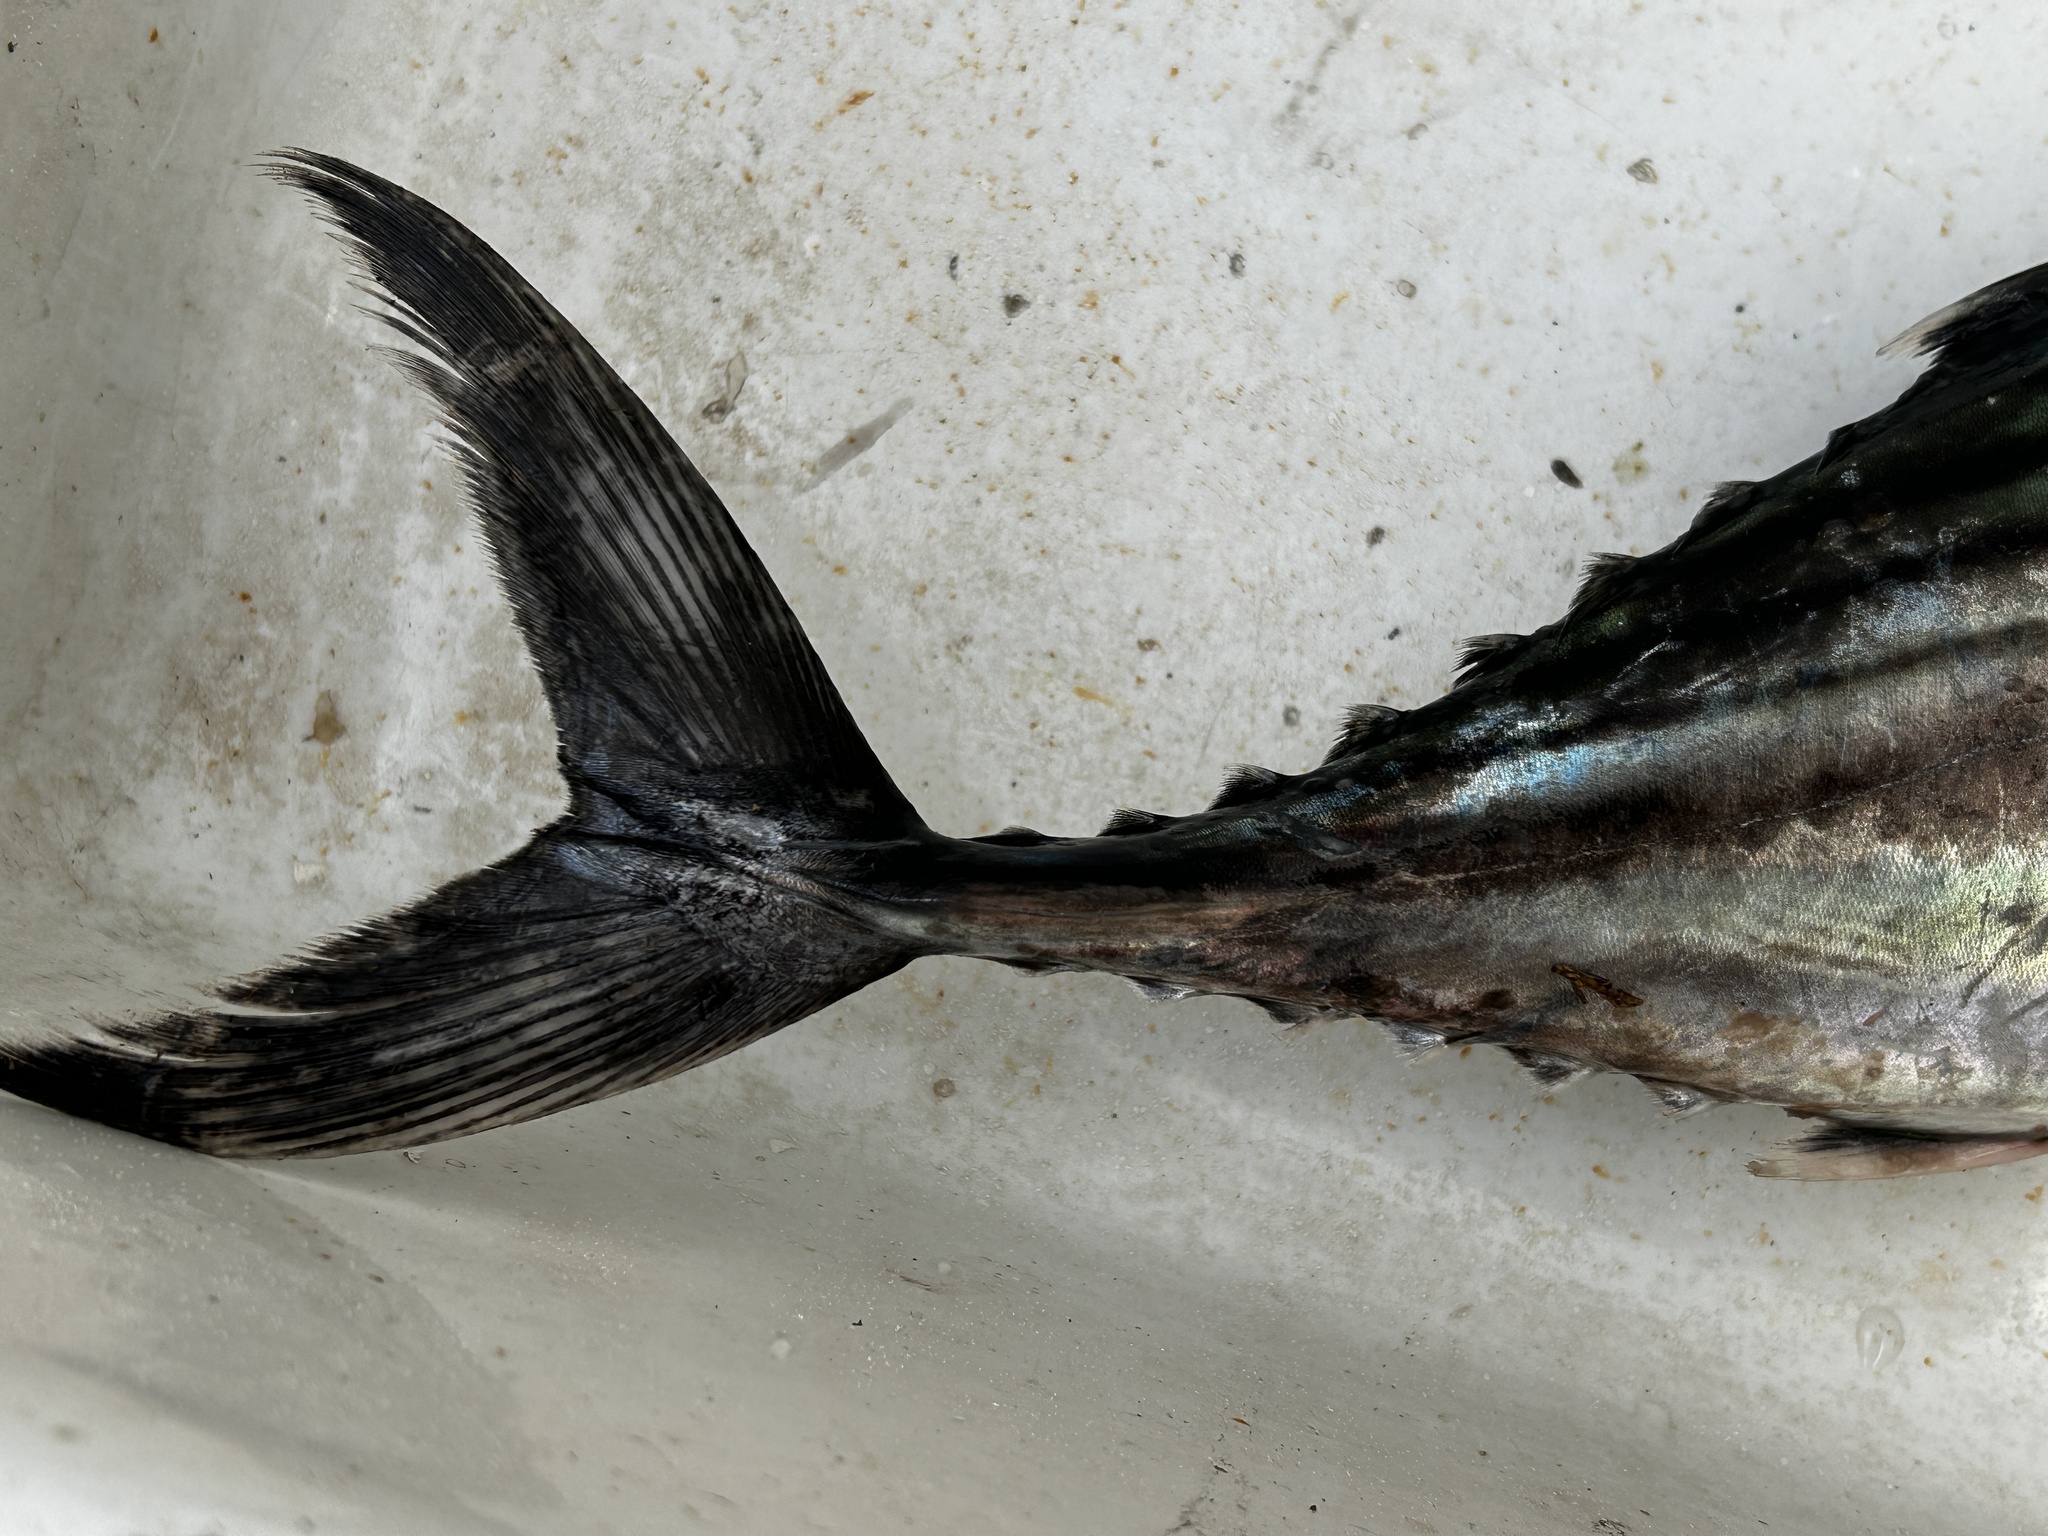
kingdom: Animalia
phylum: Chordata
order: Perciformes
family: Scombridae
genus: Sarda
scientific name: Sarda sarda
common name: Atlantic bonito
